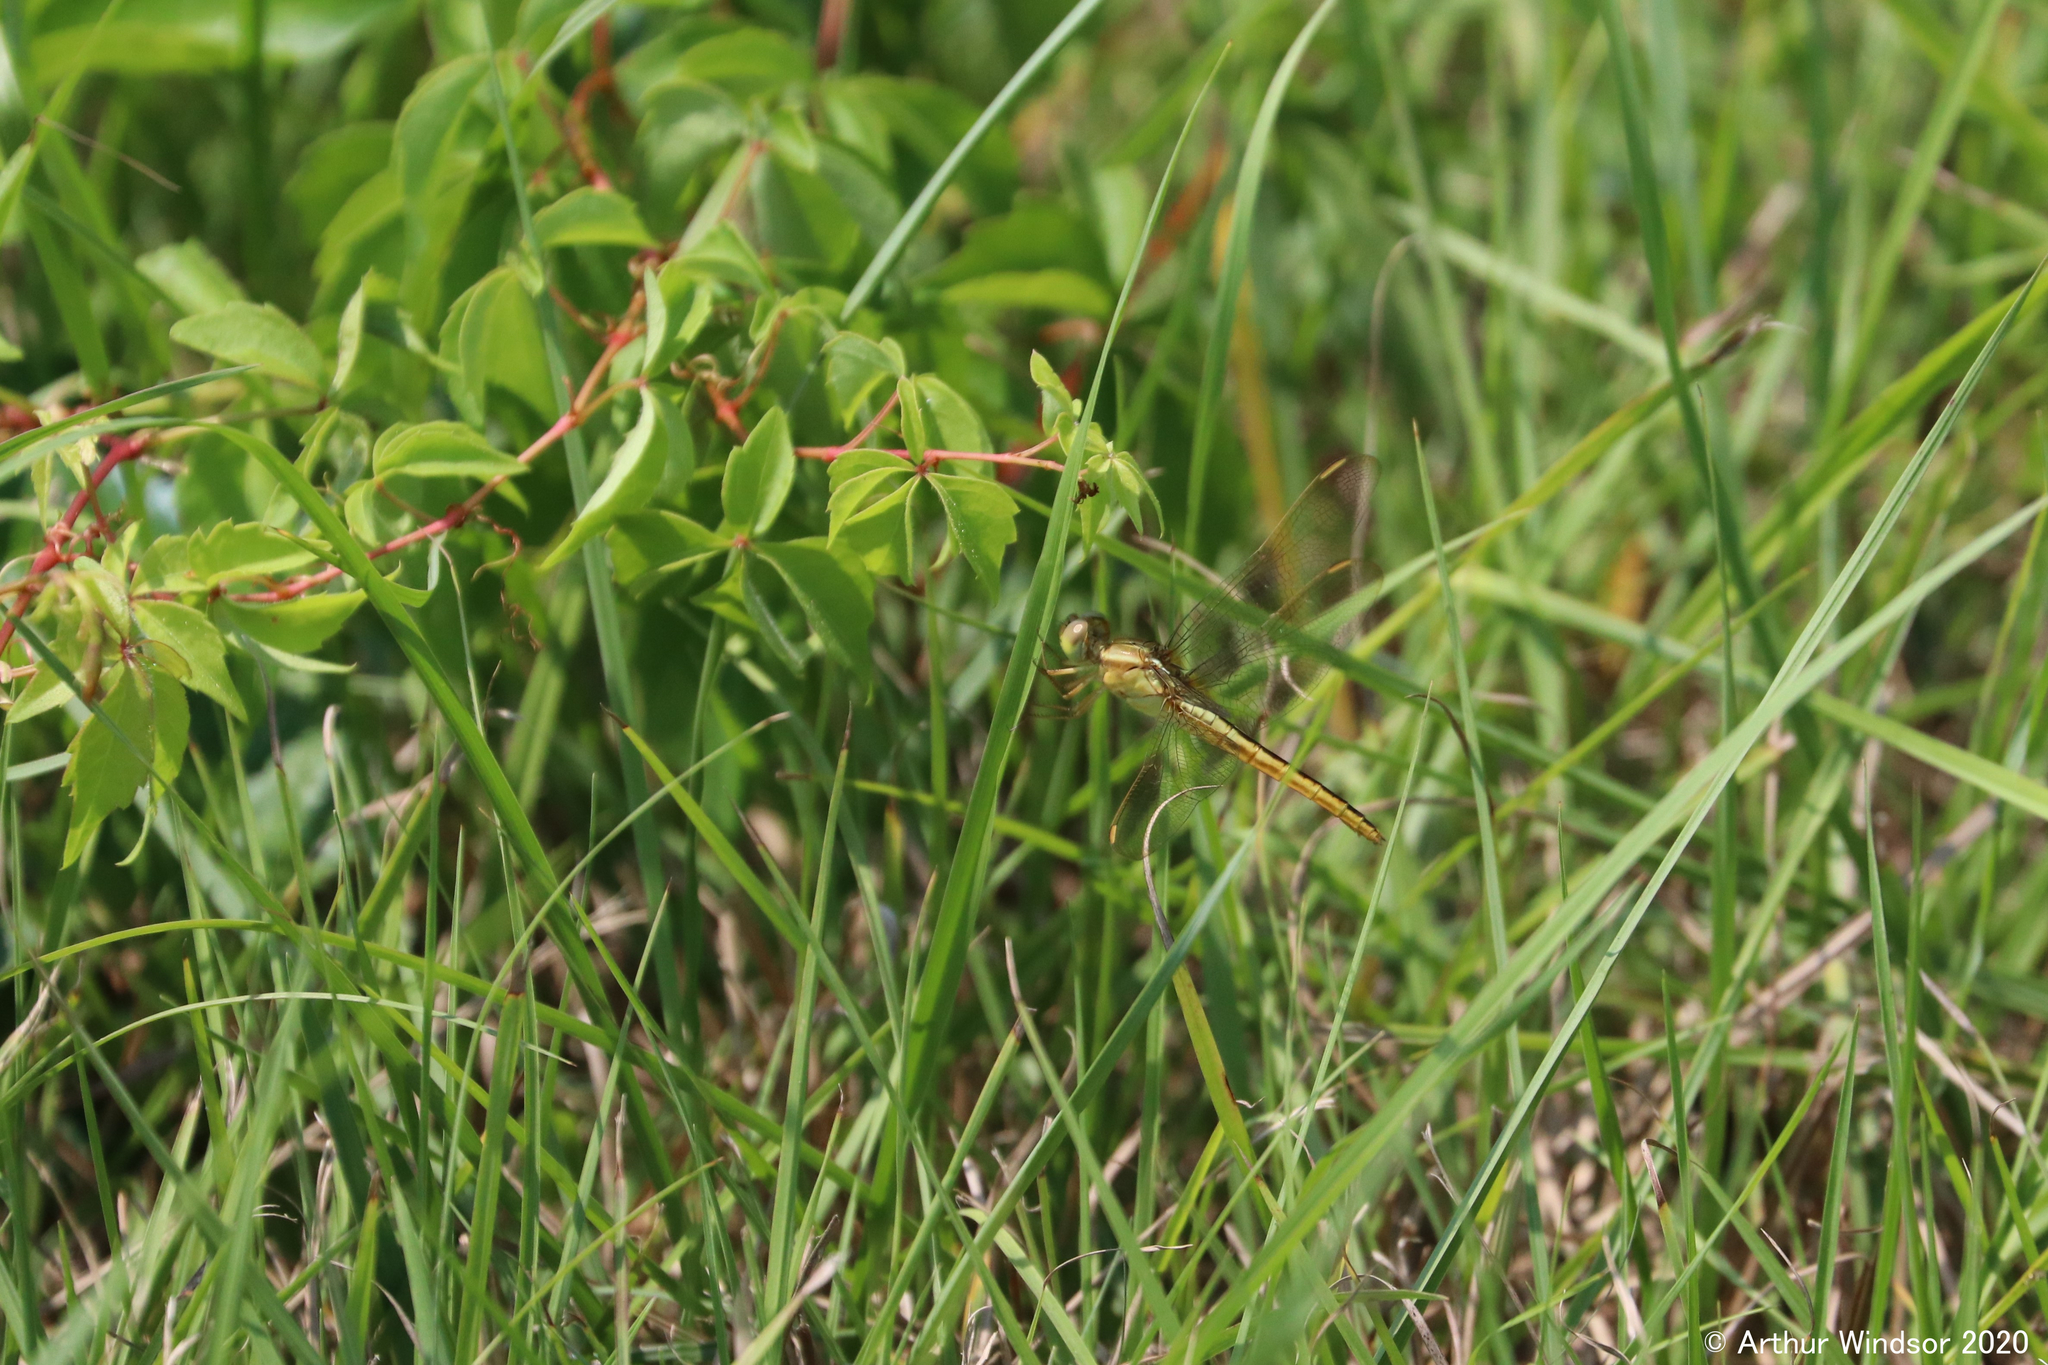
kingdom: Animalia
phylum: Arthropoda
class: Insecta
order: Odonata
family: Libellulidae
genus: Libellula
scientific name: Libellula needhami
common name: Needham's skimmer
